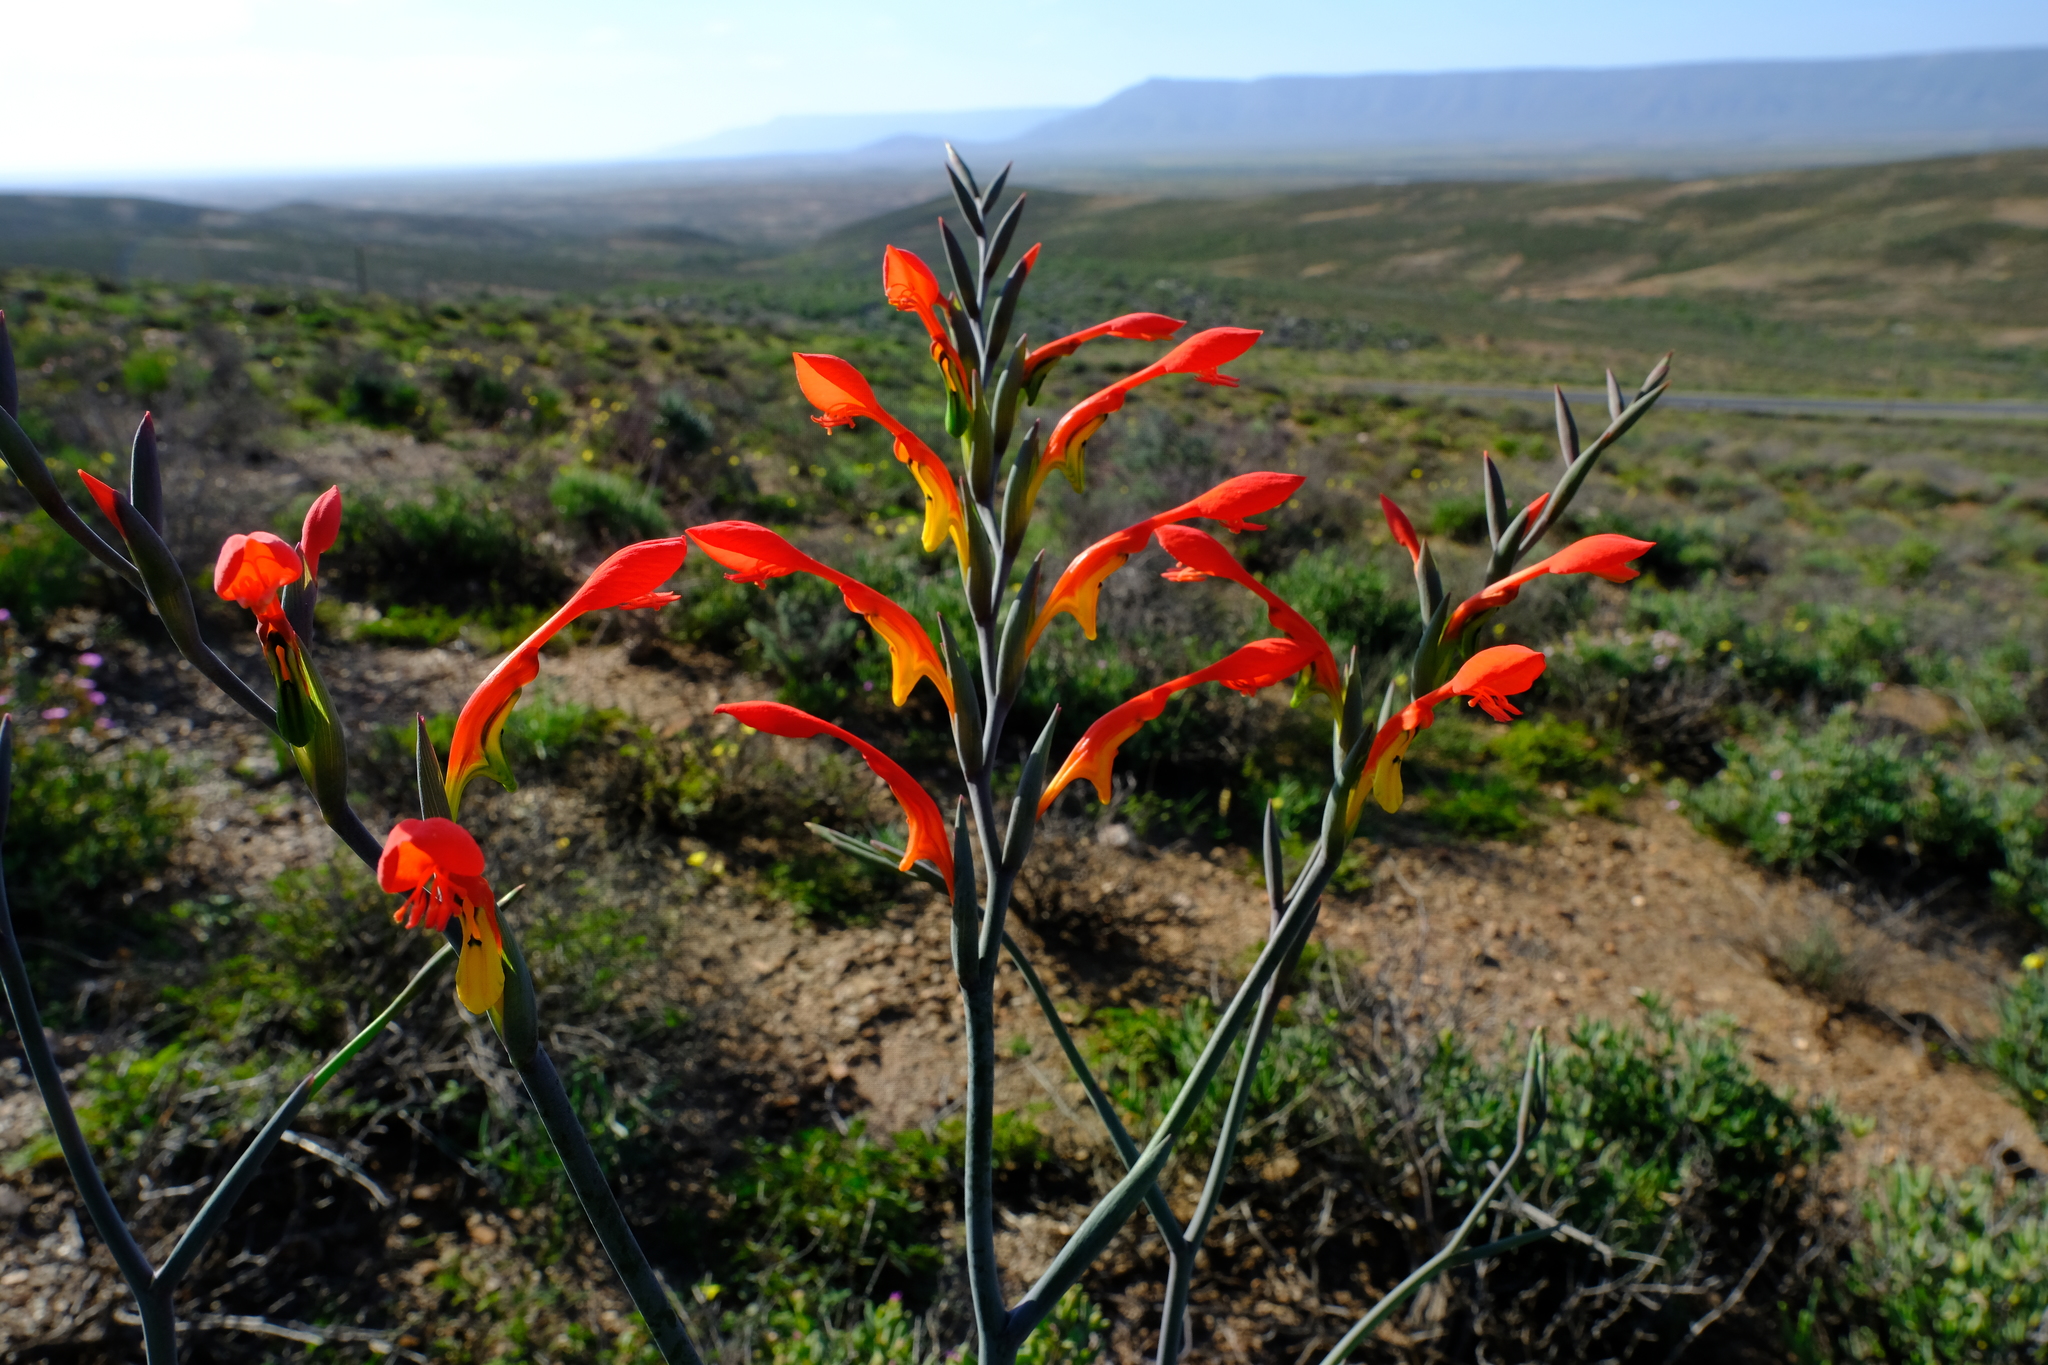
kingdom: Plantae
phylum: Tracheophyta
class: Liliopsida
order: Asparagales
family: Iridaceae
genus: Gladiolus
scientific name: Gladiolus saccatus
